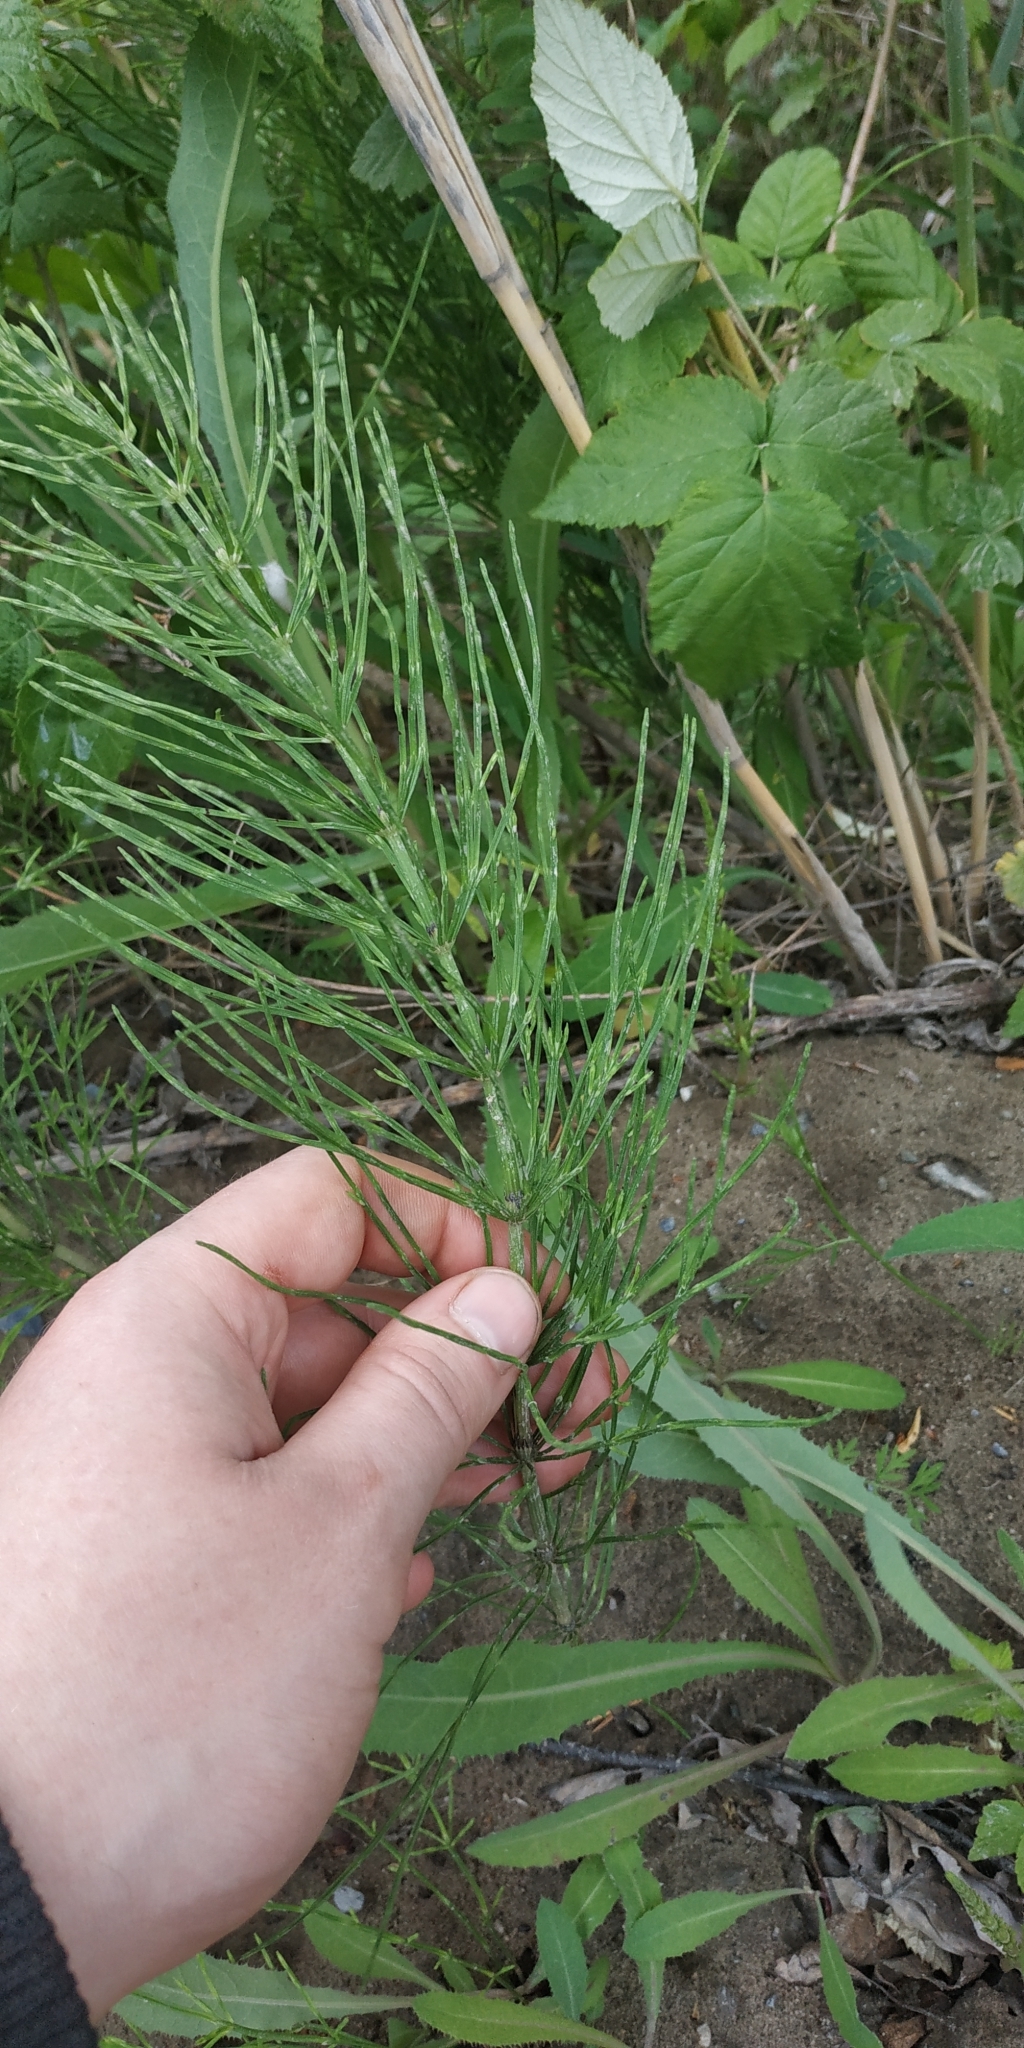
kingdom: Plantae
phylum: Tracheophyta
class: Polypodiopsida
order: Equisetales
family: Equisetaceae
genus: Equisetum
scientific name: Equisetum arvense
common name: Field horsetail
